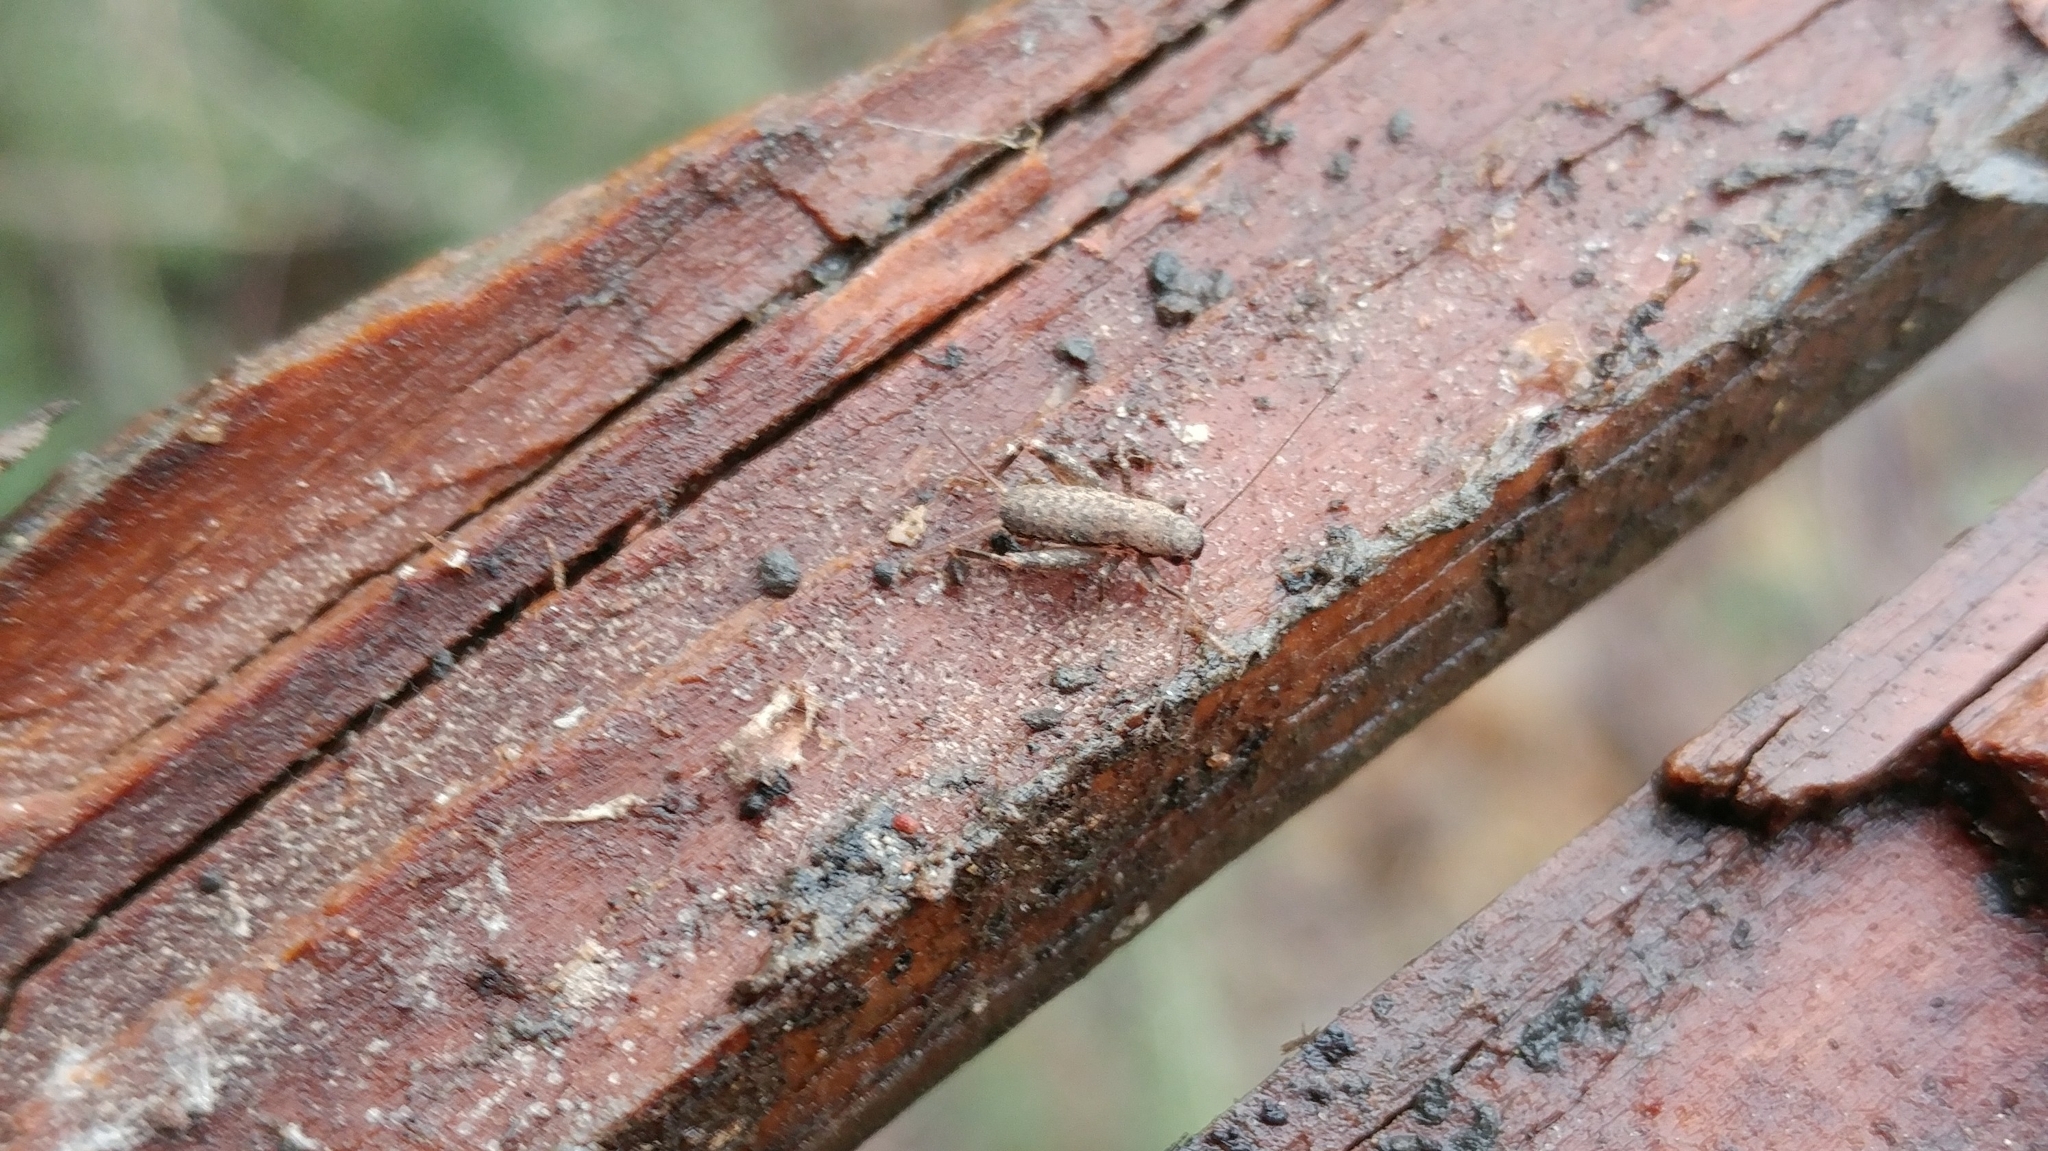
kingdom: Animalia
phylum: Arthropoda
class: Insecta
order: Orthoptera
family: Mogoplistidae
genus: Hoplosphyrum
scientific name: Hoplosphyrum boreale
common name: Long-winged scaly cricket
